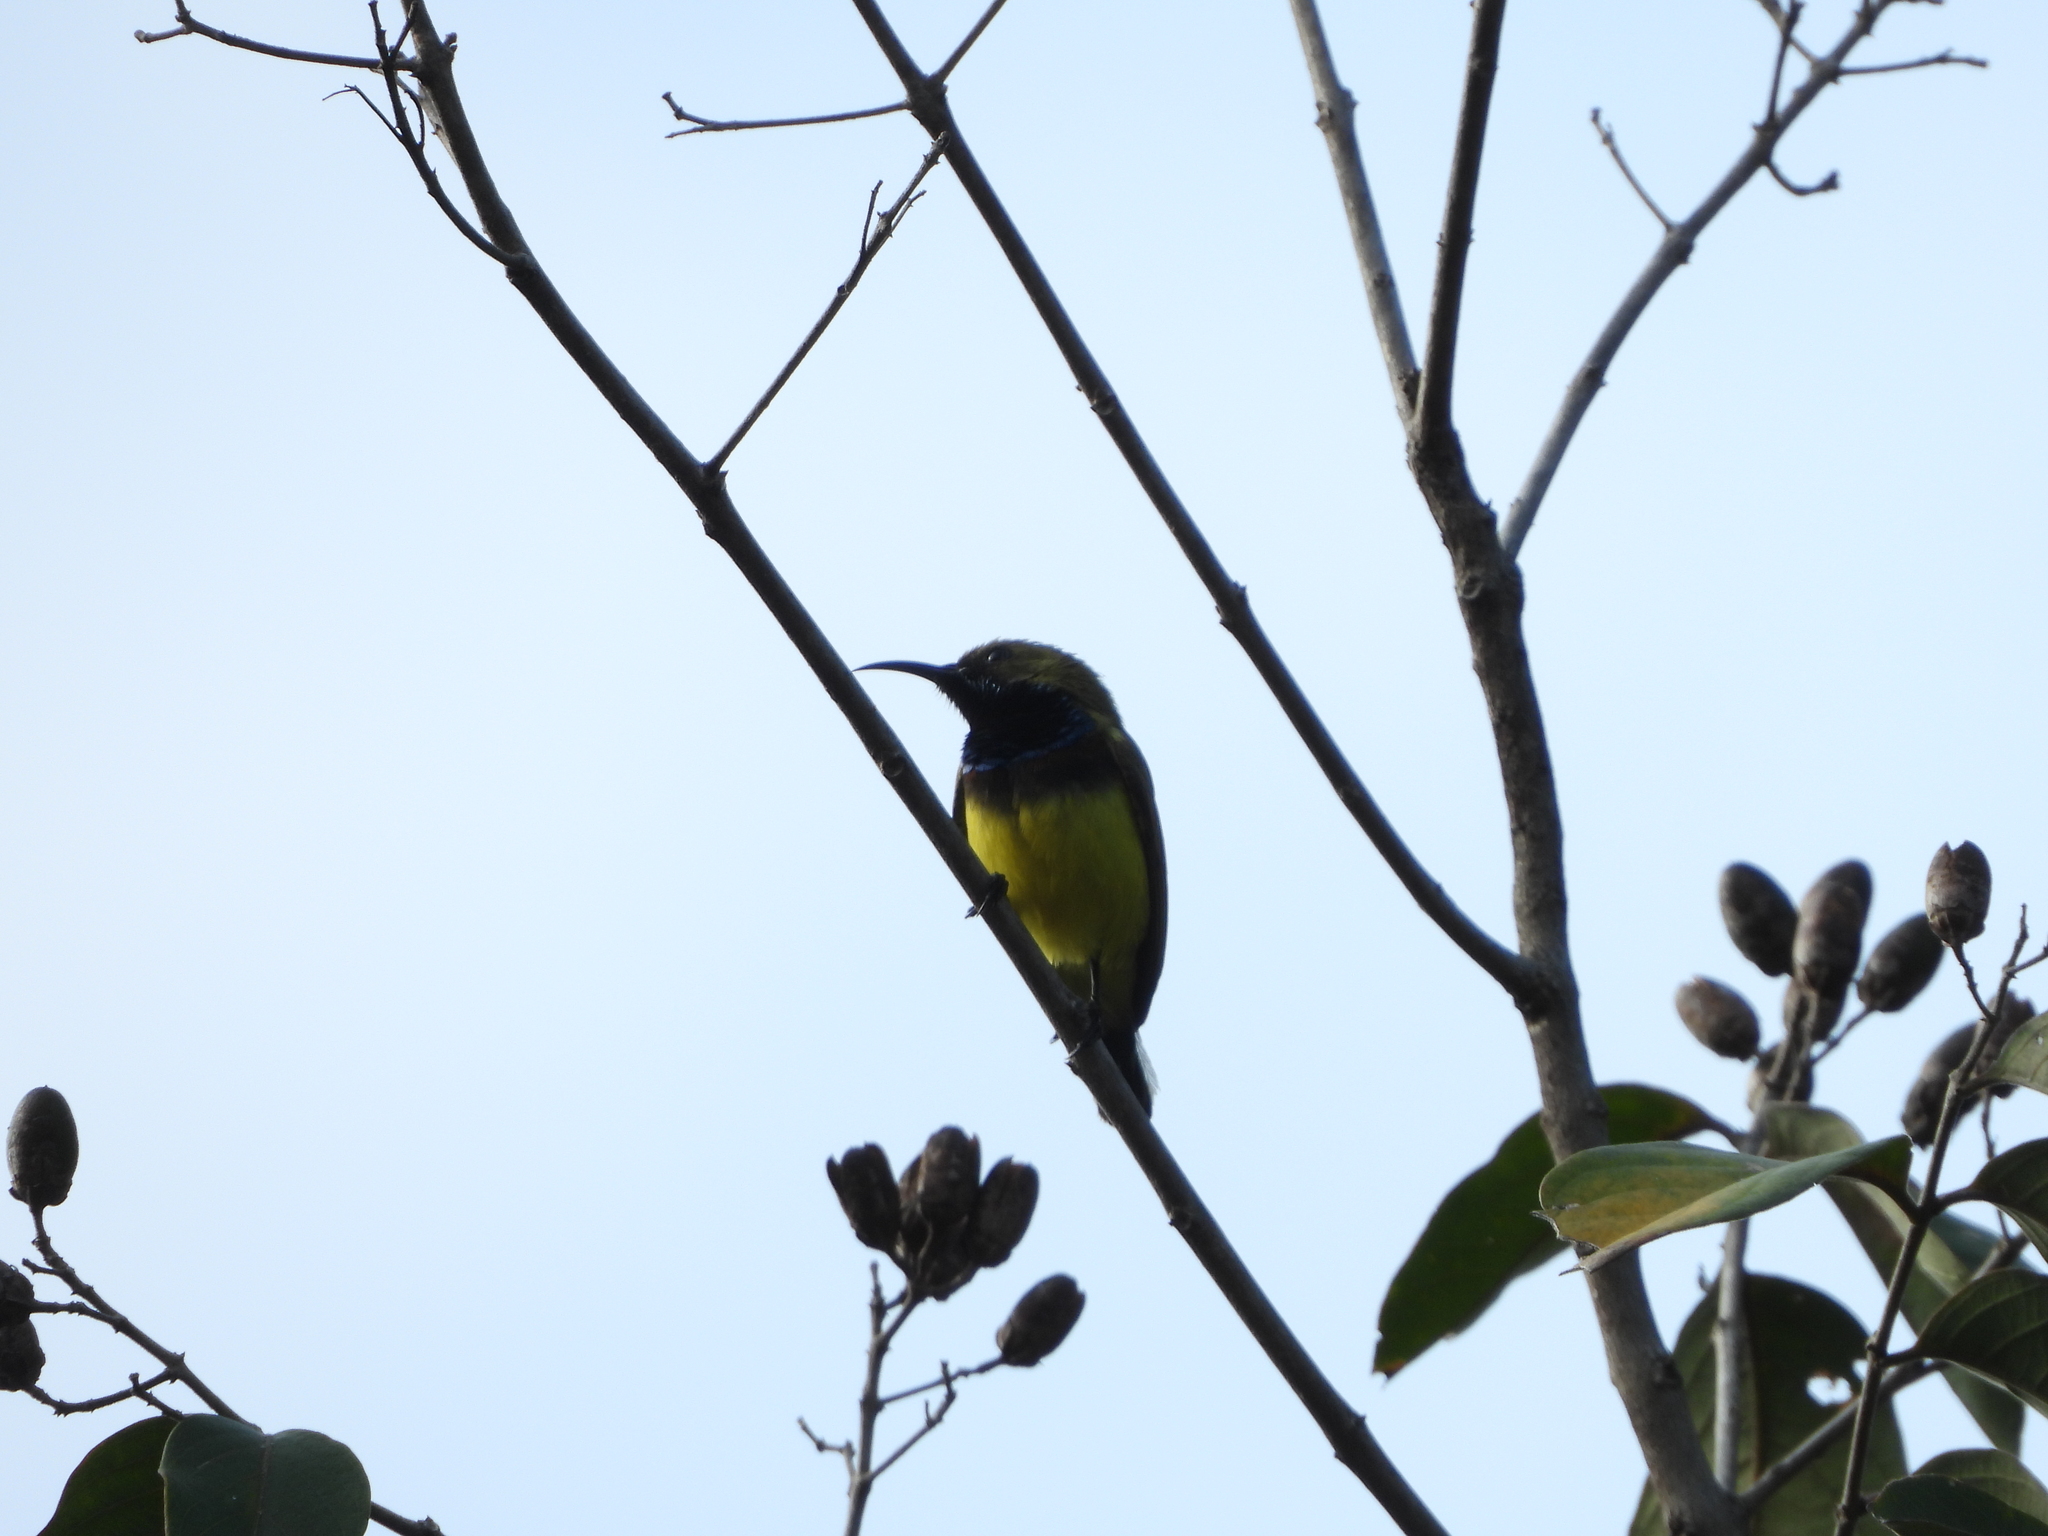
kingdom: Animalia
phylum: Chordata
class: Aves
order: Passeriformes
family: Nectariniidae
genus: Cinnyris
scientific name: Cinnyris
